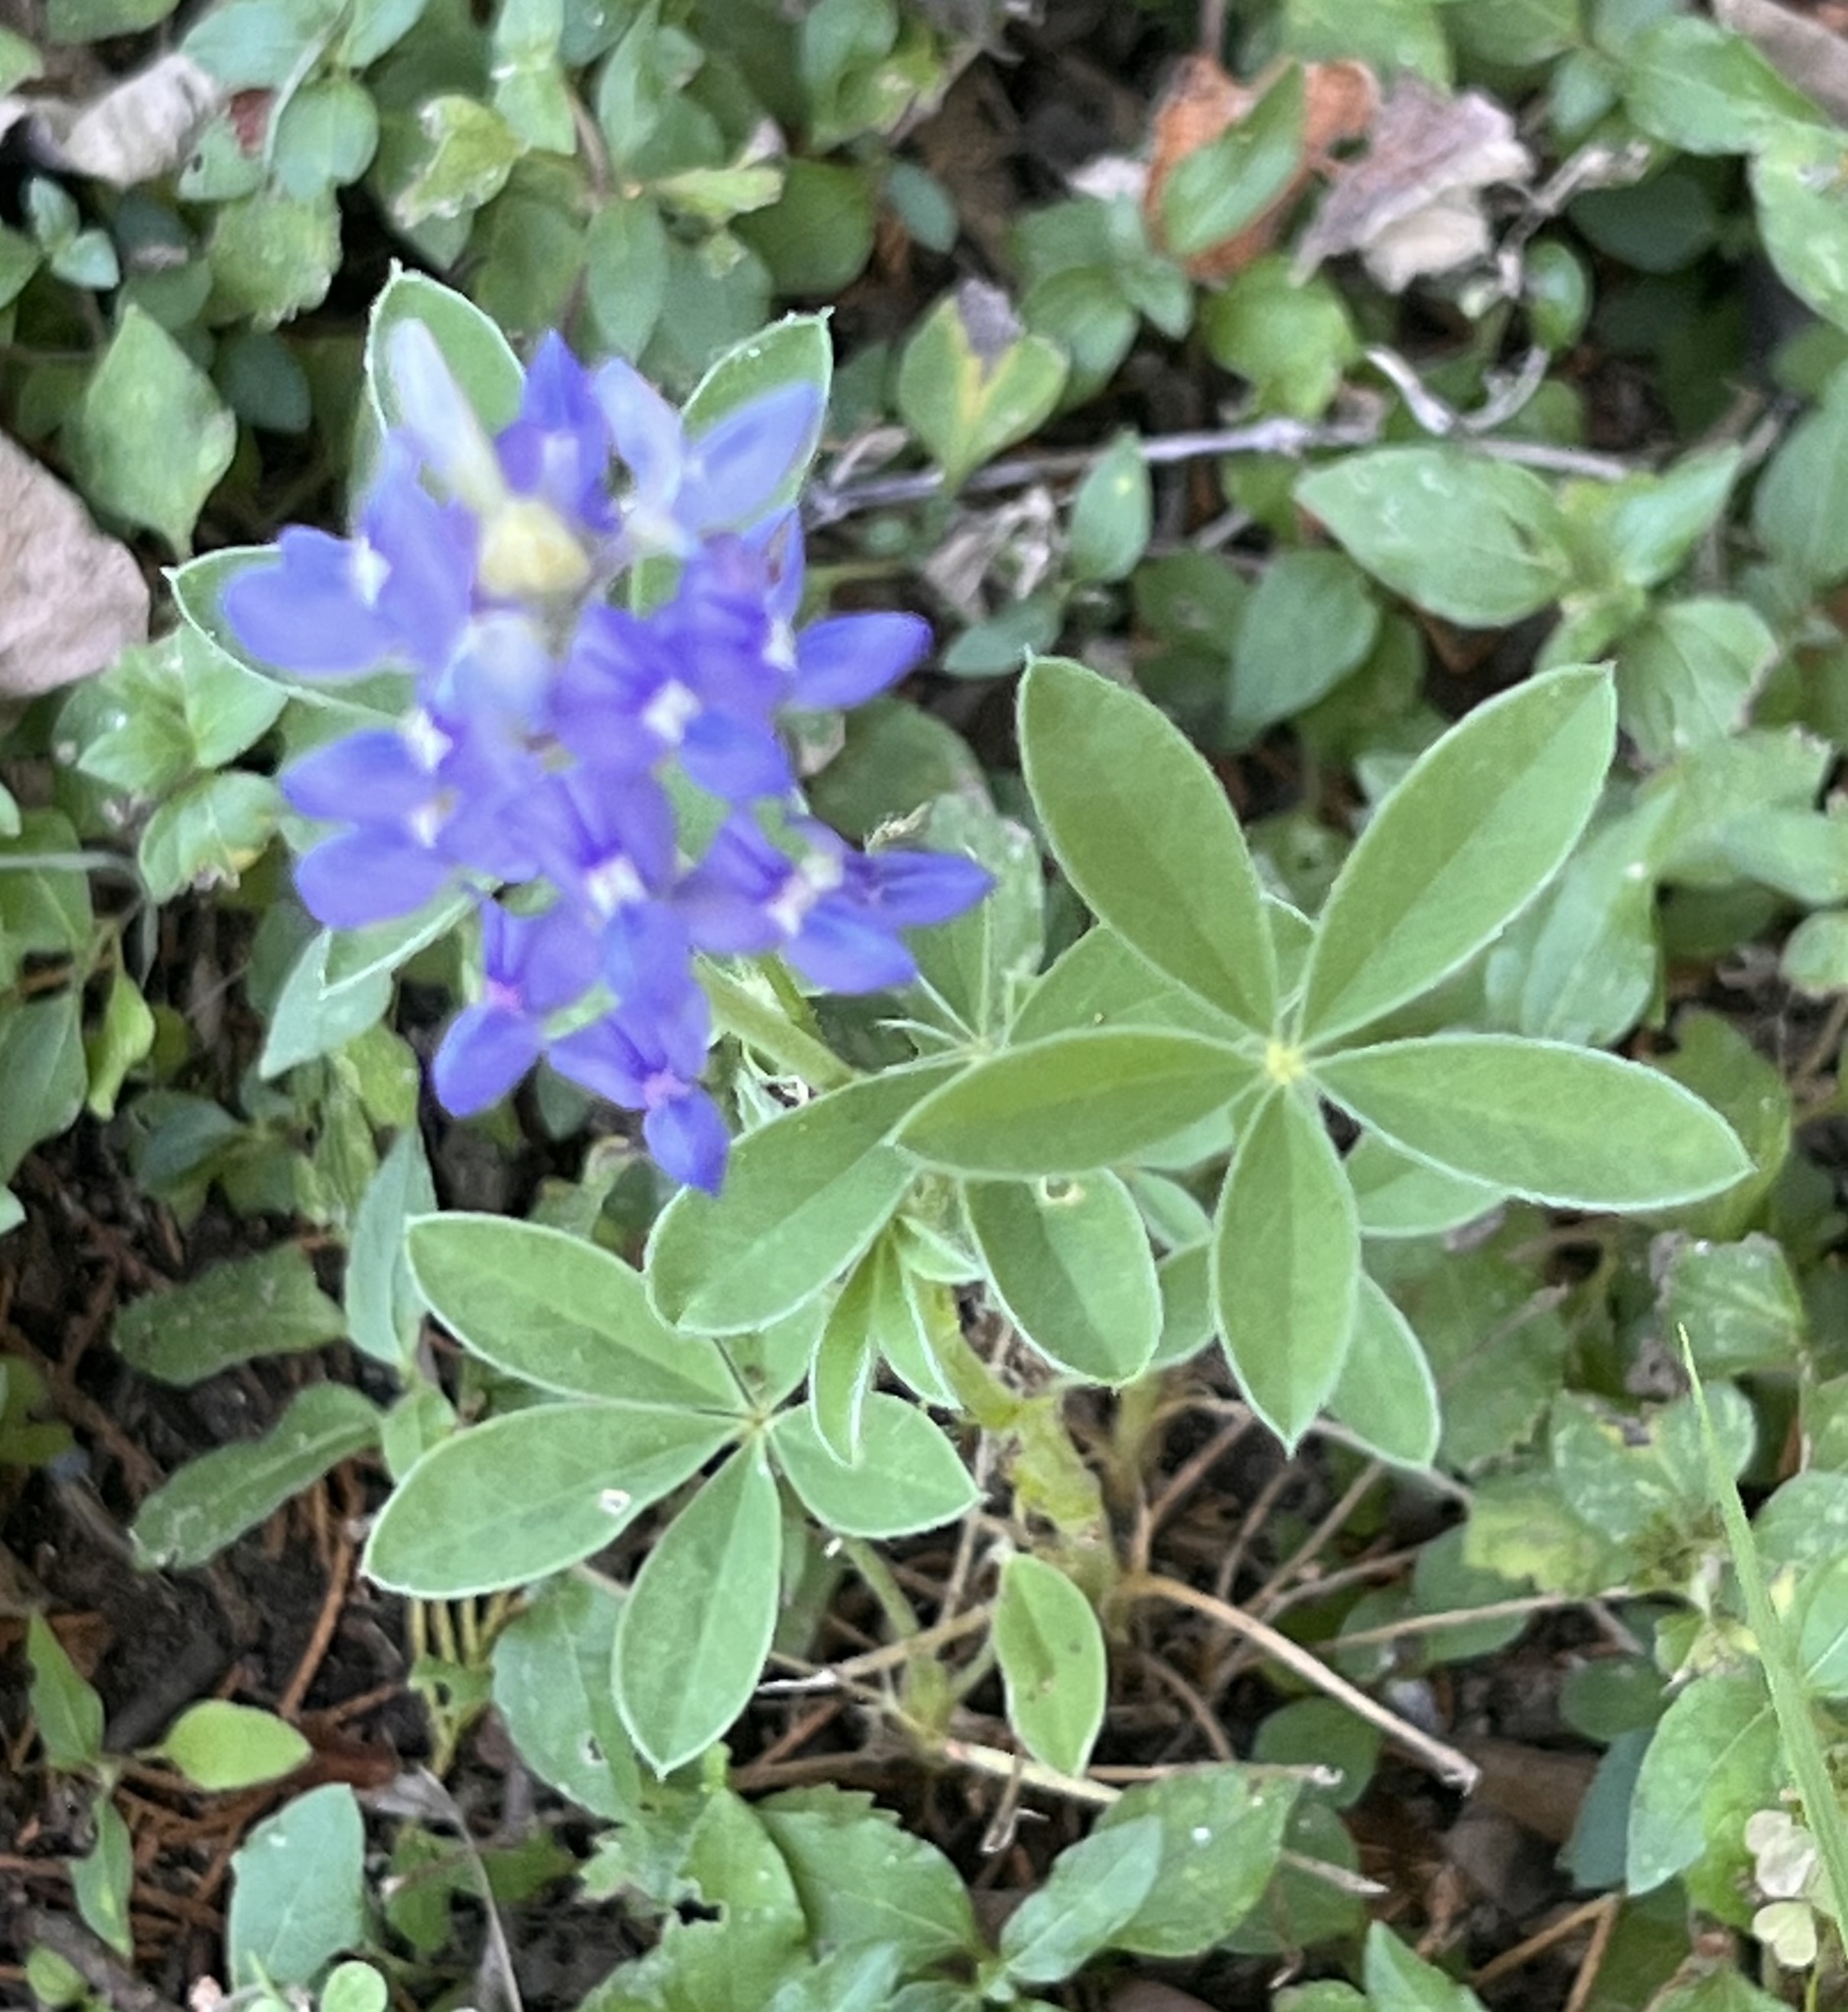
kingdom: Plantae
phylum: Tracheophyta
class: Magnoliopsida
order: Fabales
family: Fabaceae
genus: Lupinus
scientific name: Lupinus texensis
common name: Texas bluebonnet
